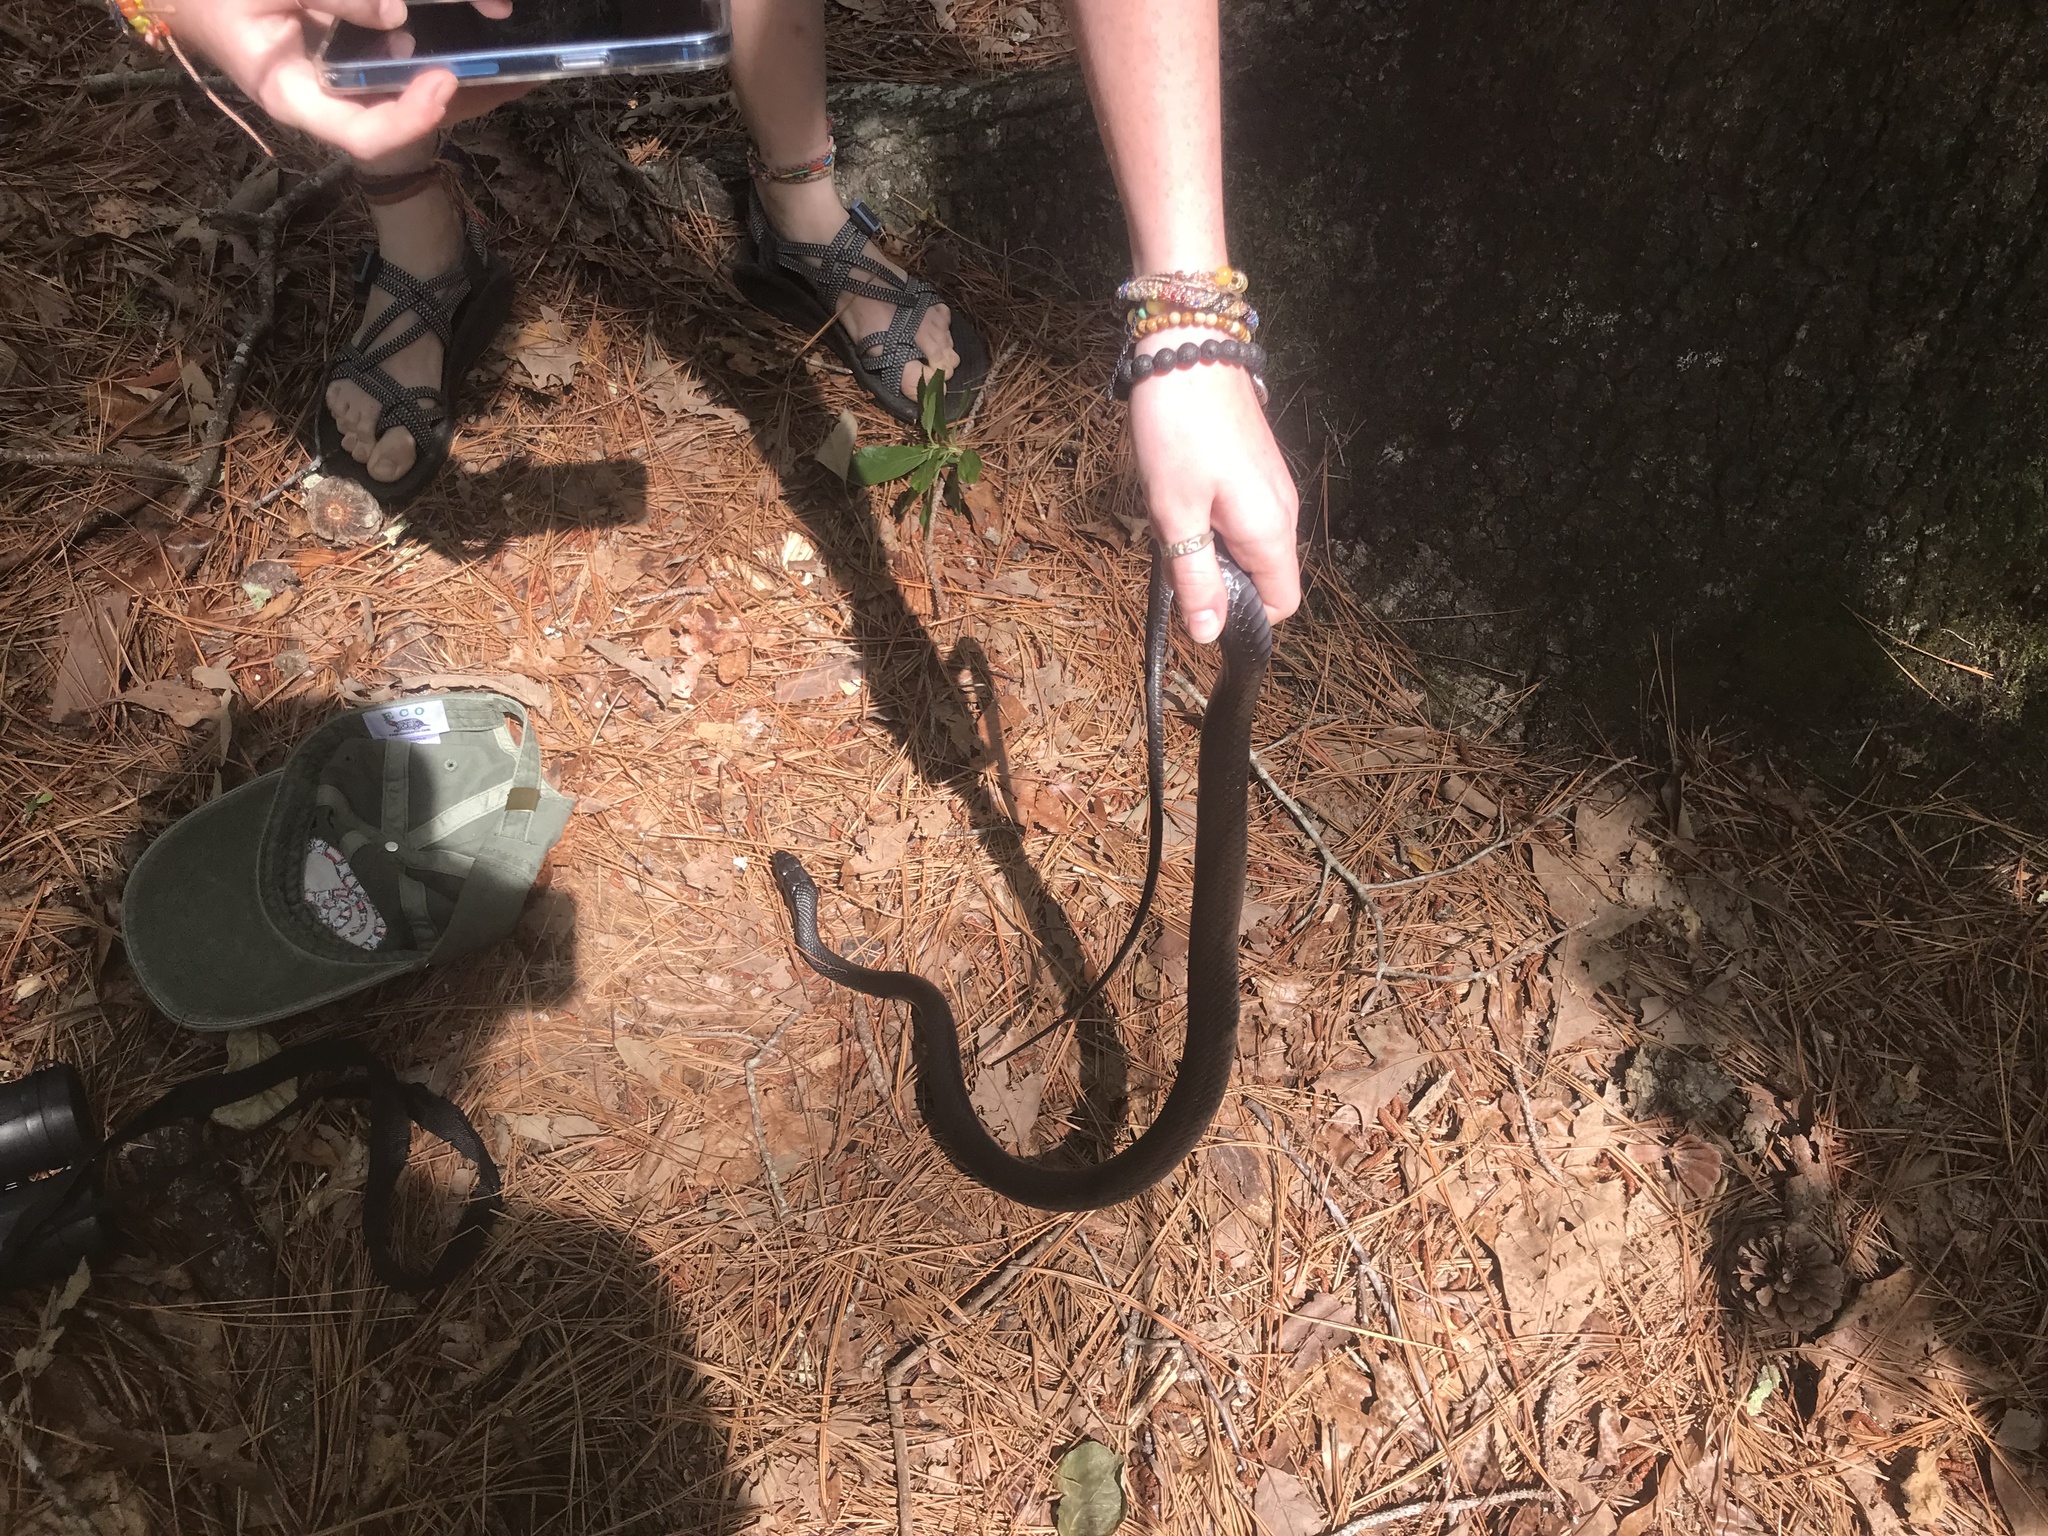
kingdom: Animalia
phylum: Chordata
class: Squamata
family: Colubridae
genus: Coluber
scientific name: Coluber constrictor
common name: Eastern racer
